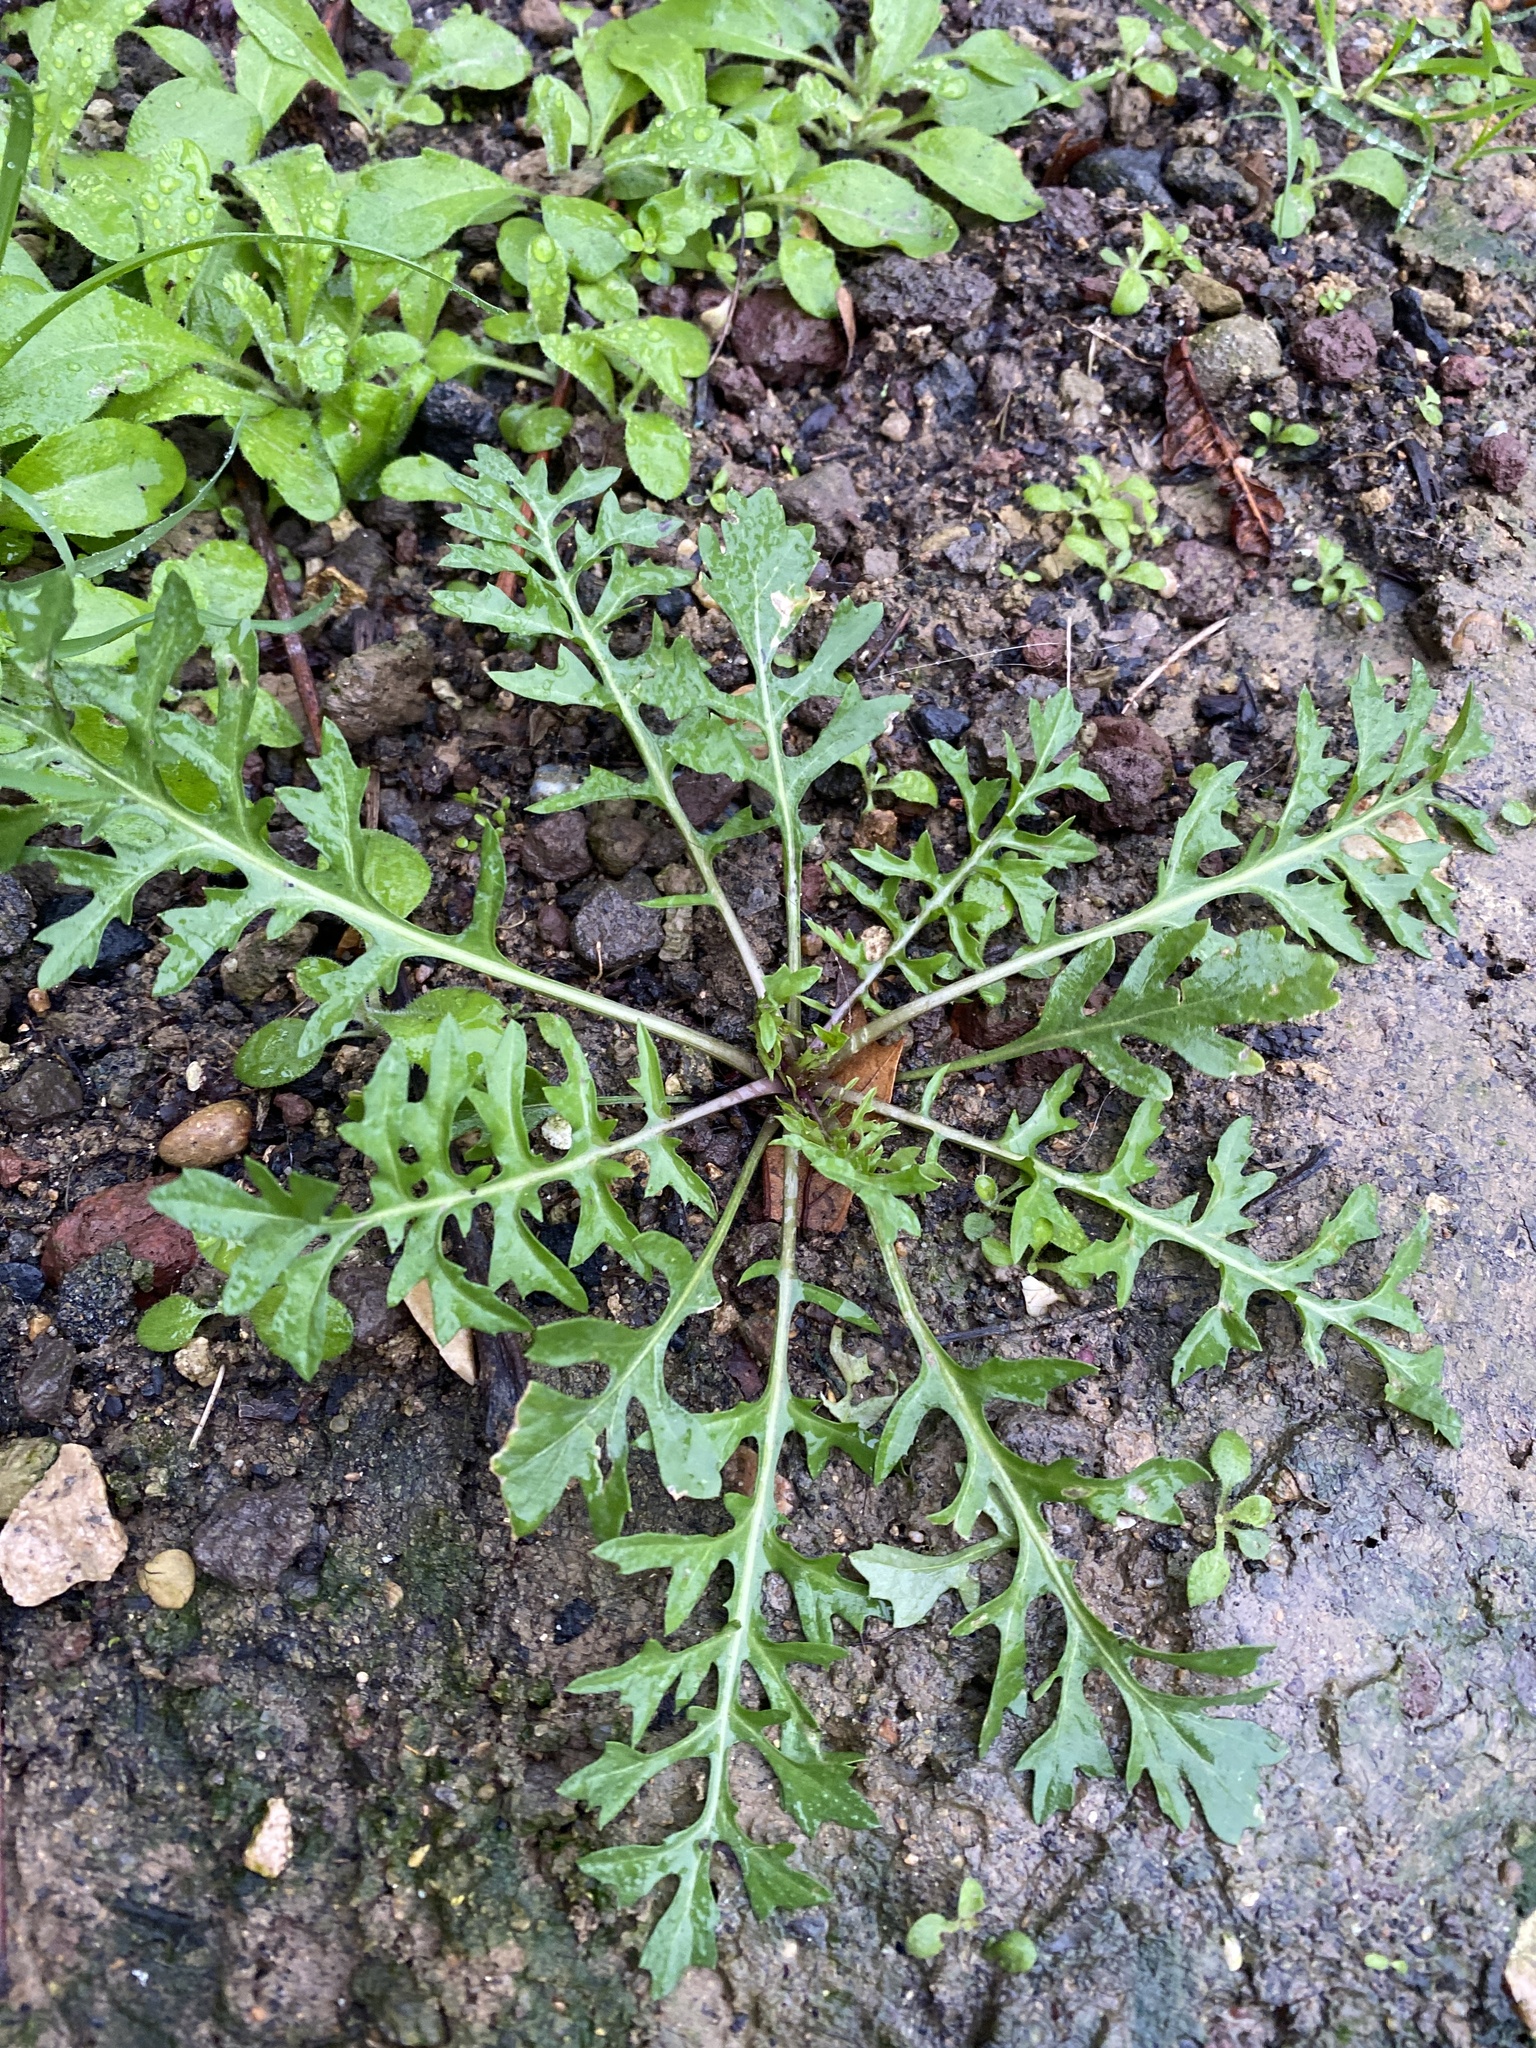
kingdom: Plantae
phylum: Tracheophyta
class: Magnoliopsida
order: Brassicales
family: Brassicaceae
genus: Capsella
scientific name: Capsella bursa-pastoris
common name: Shepherd's purse
